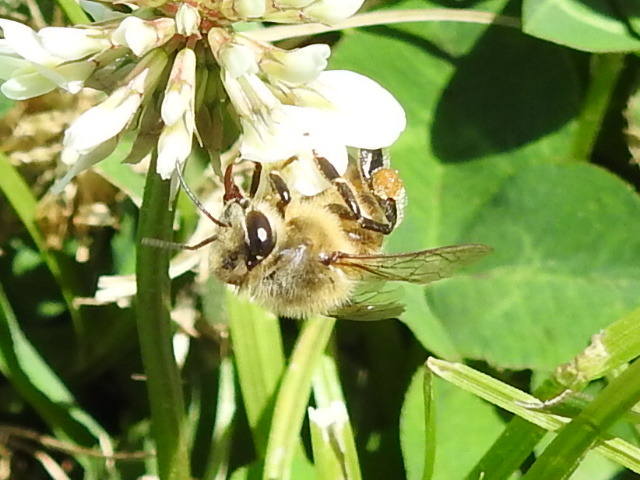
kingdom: Animalia
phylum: Arthropoda
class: Insecta
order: Hymenoptera
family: Apidae
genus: Apis
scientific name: Apis mellifera
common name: Honey bee
